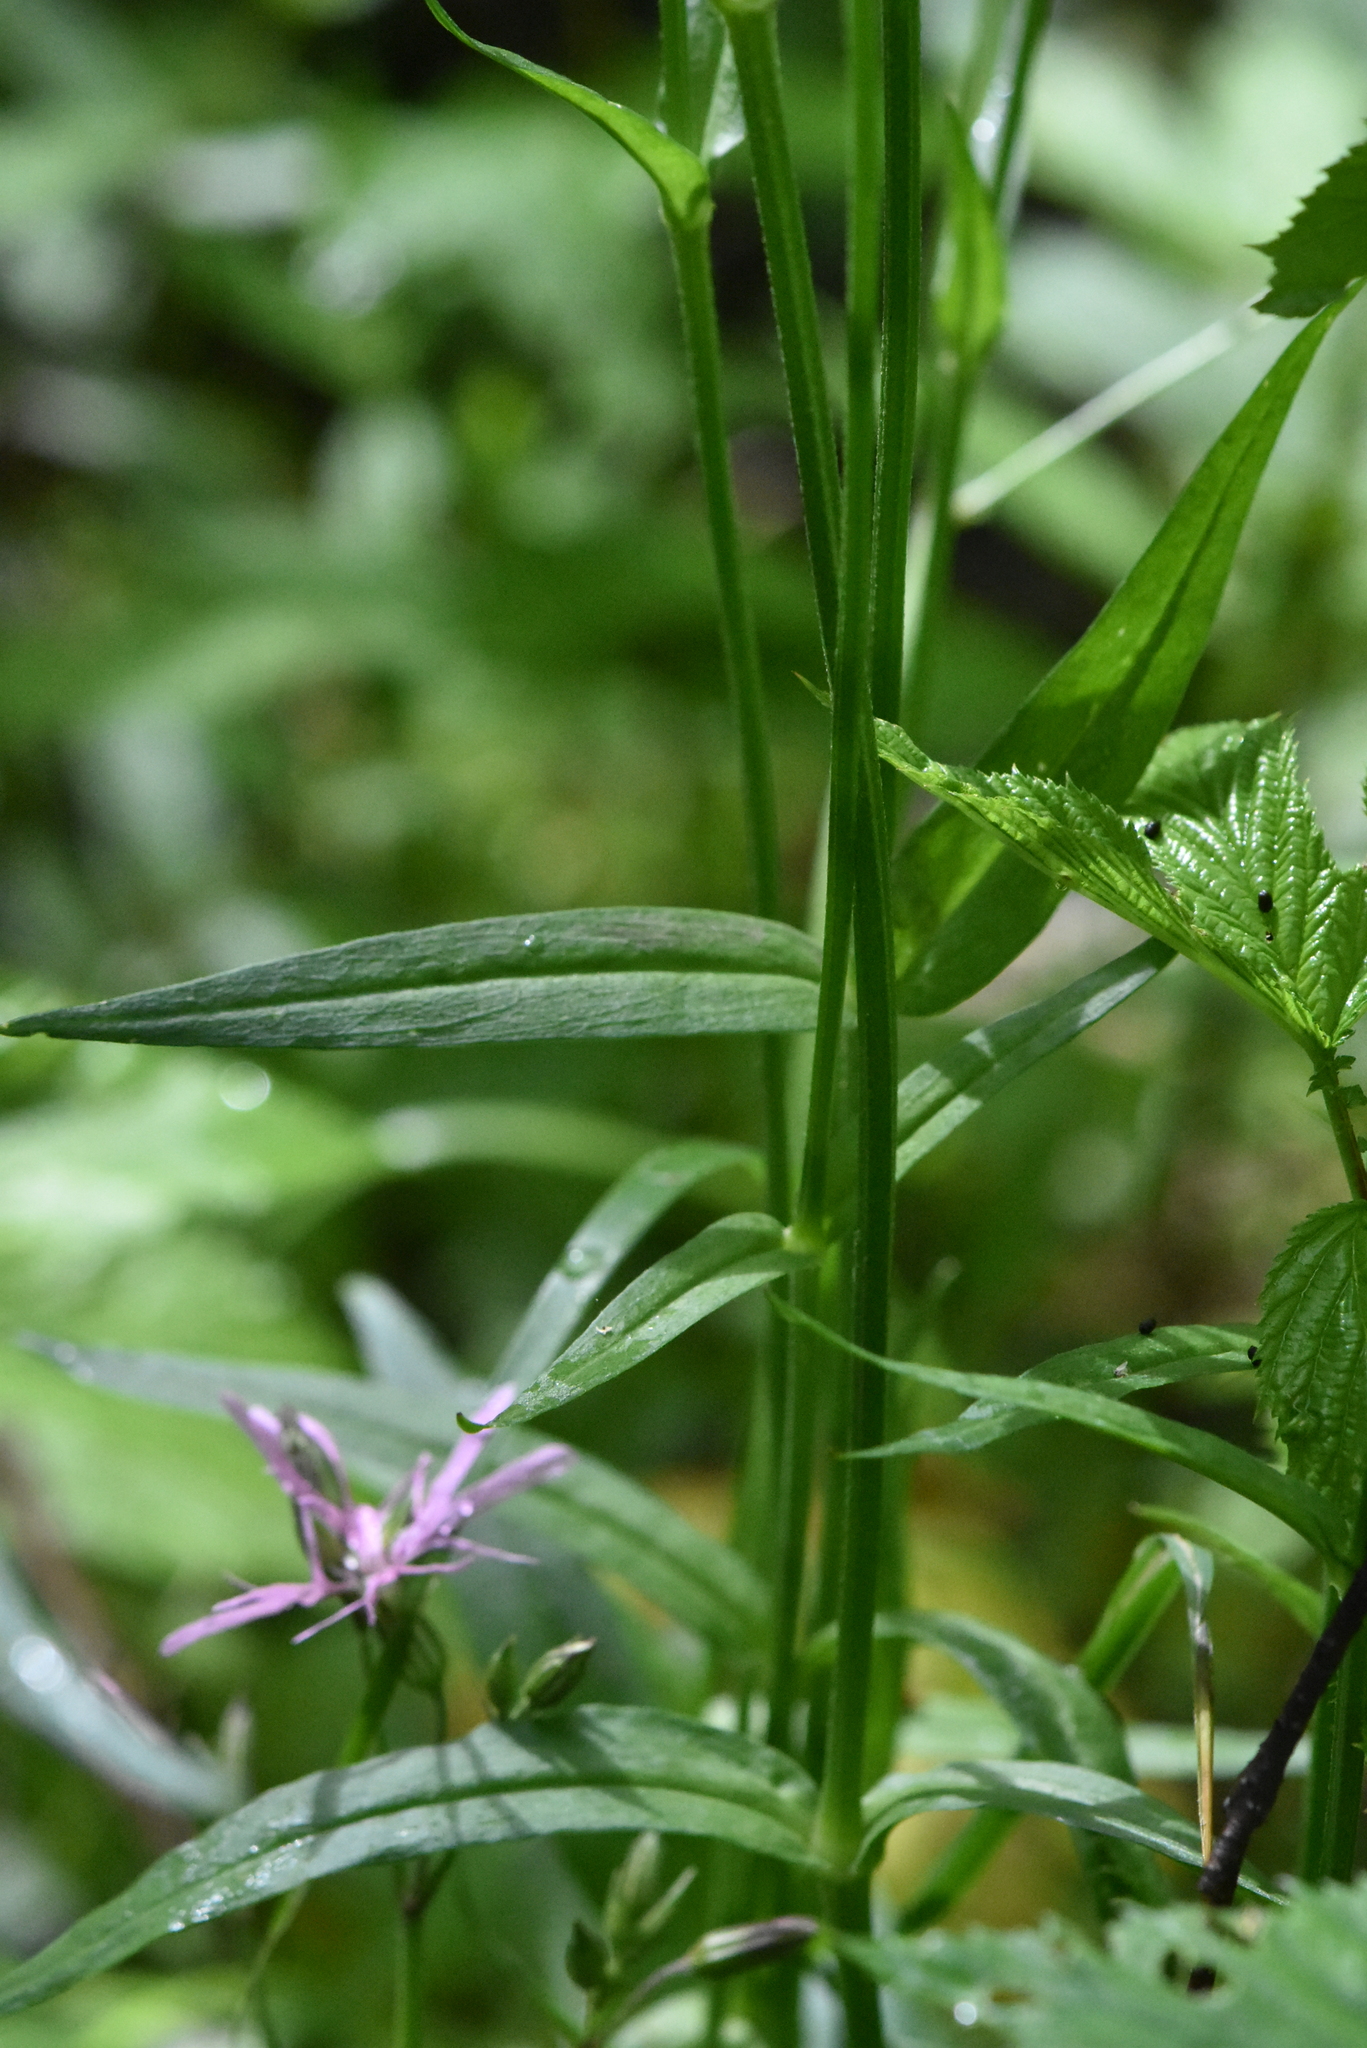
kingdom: Plantae
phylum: Tracheophyta
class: Magnoliopsida
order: Caryophyllales
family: Caryophyllaceae
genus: Silene
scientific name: Silene flos-cuculi
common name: Ragged-robin
